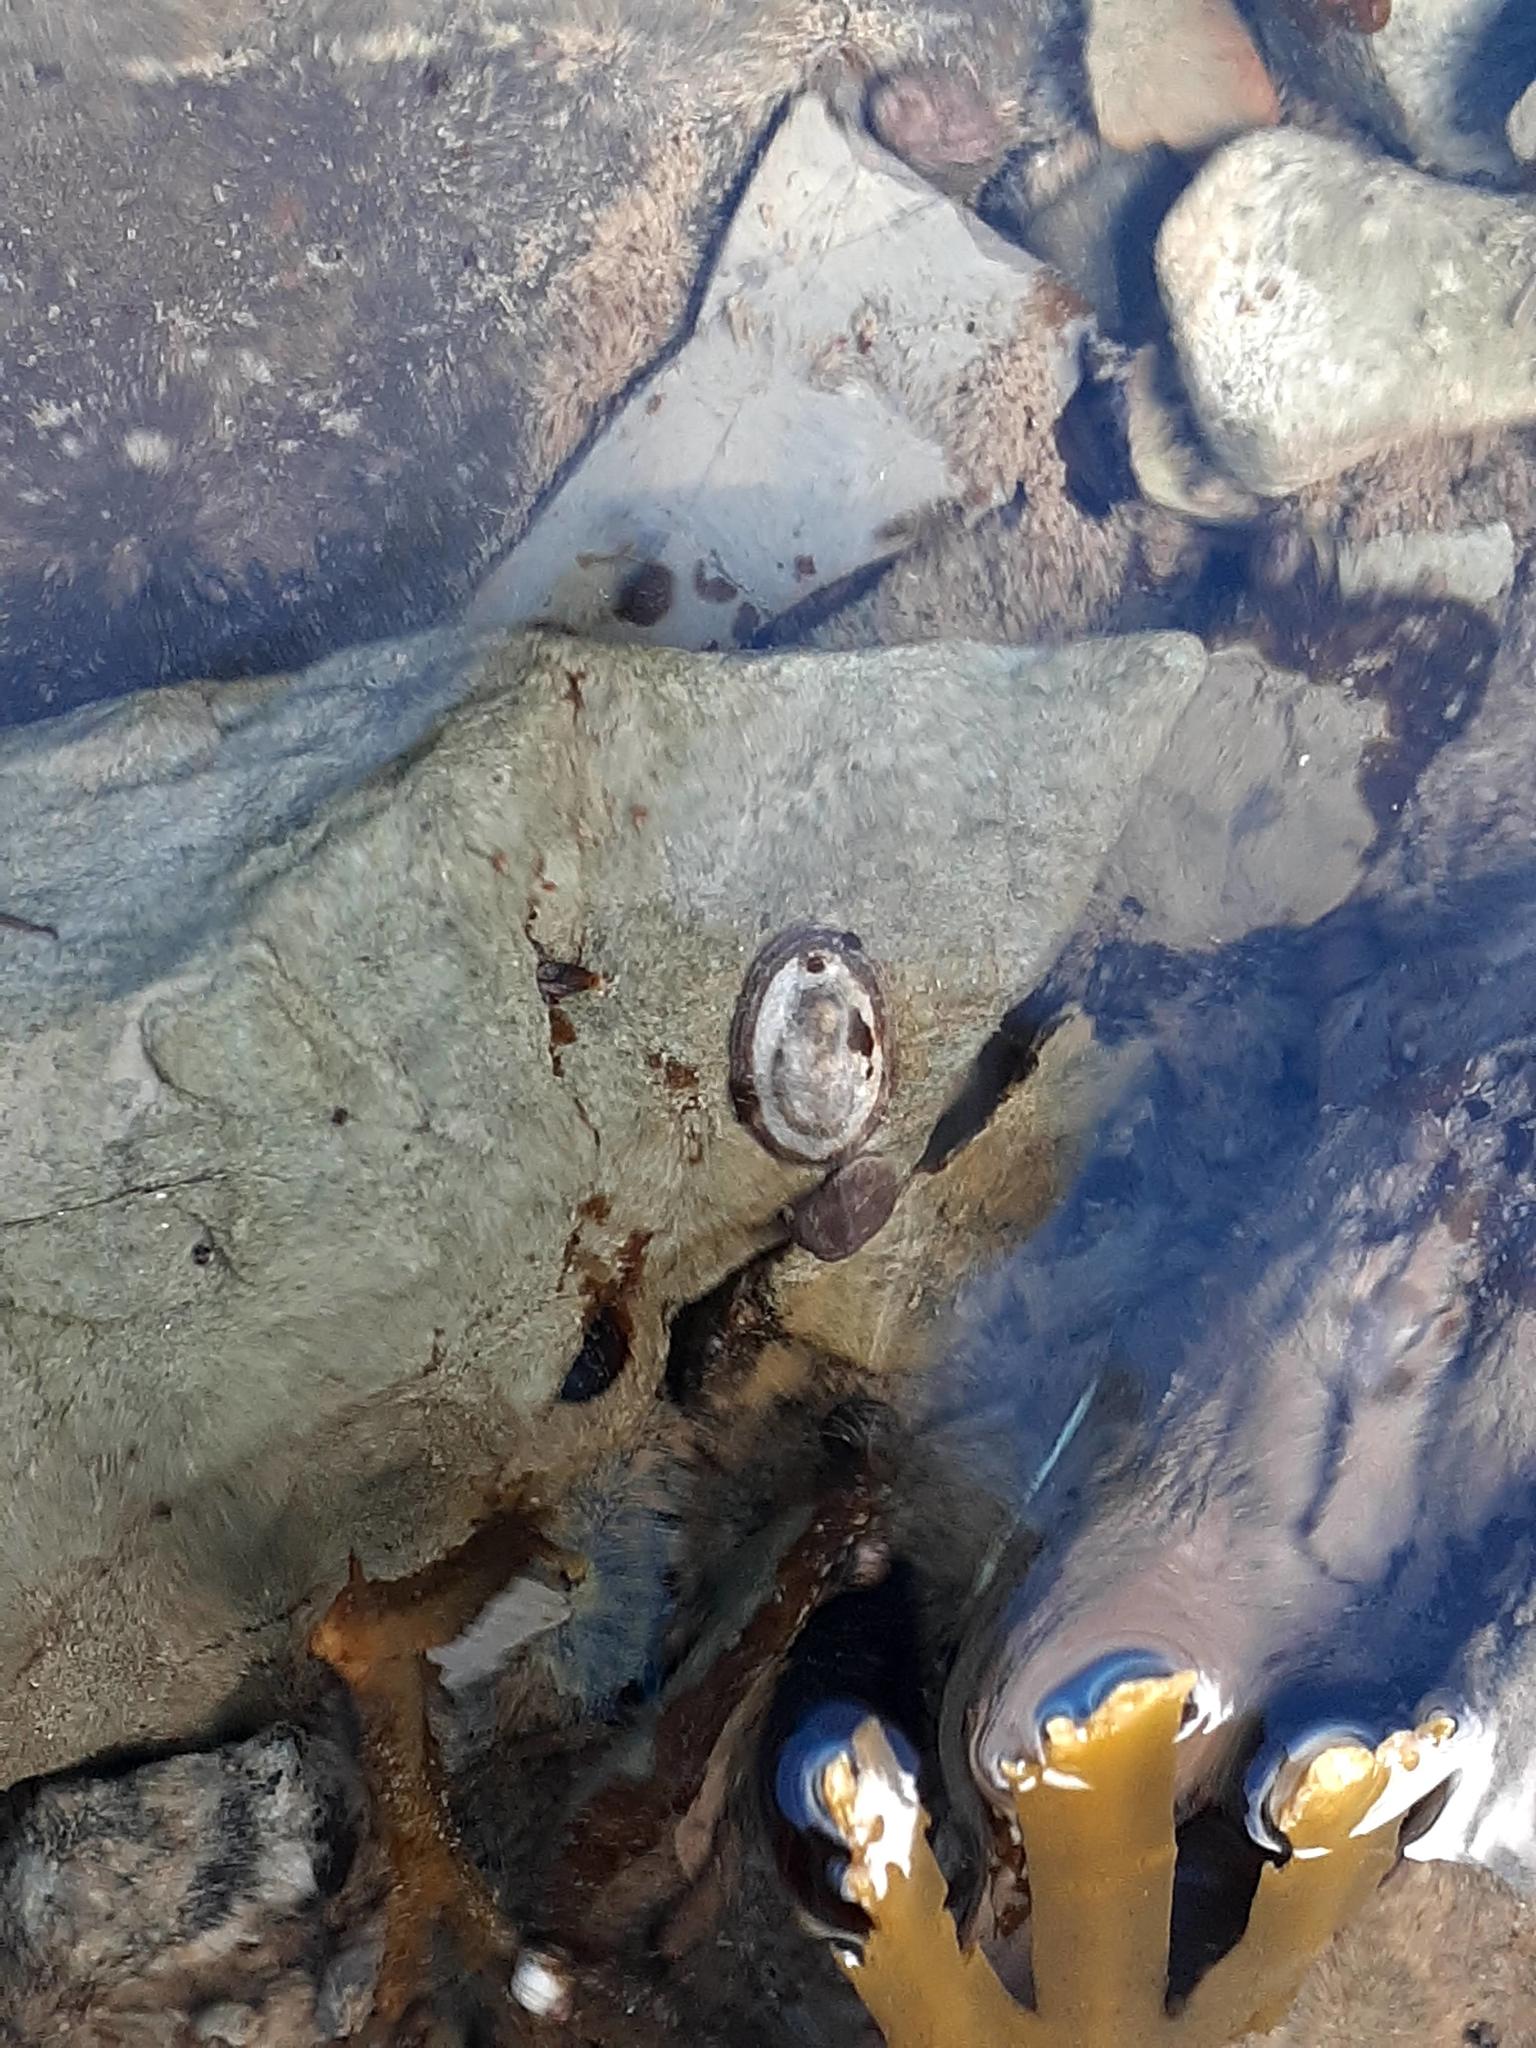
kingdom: Animalia
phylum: Mollusca
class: Gastropoda
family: Lottiidae
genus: Testudinalia
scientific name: Testudinalia testudinalis
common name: Common tortoiseshell limpet
